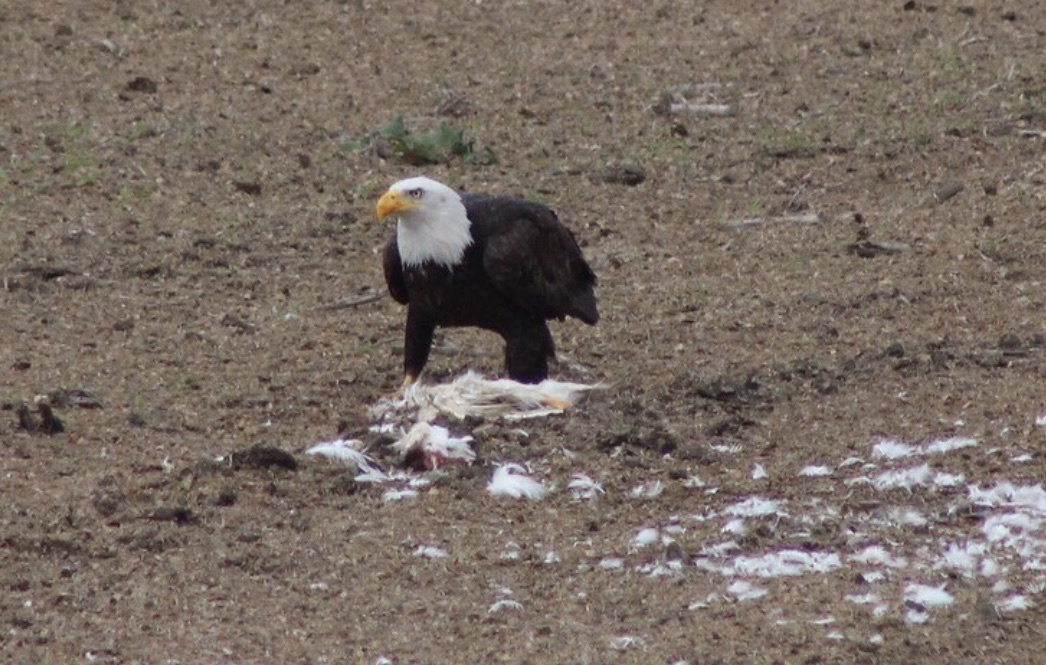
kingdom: Animalia
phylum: Chordata
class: Aves
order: Accipitriformes
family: Accipitridae
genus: Haliaeetus
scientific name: Haliaeetus leucocephalus
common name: Bald eagle
